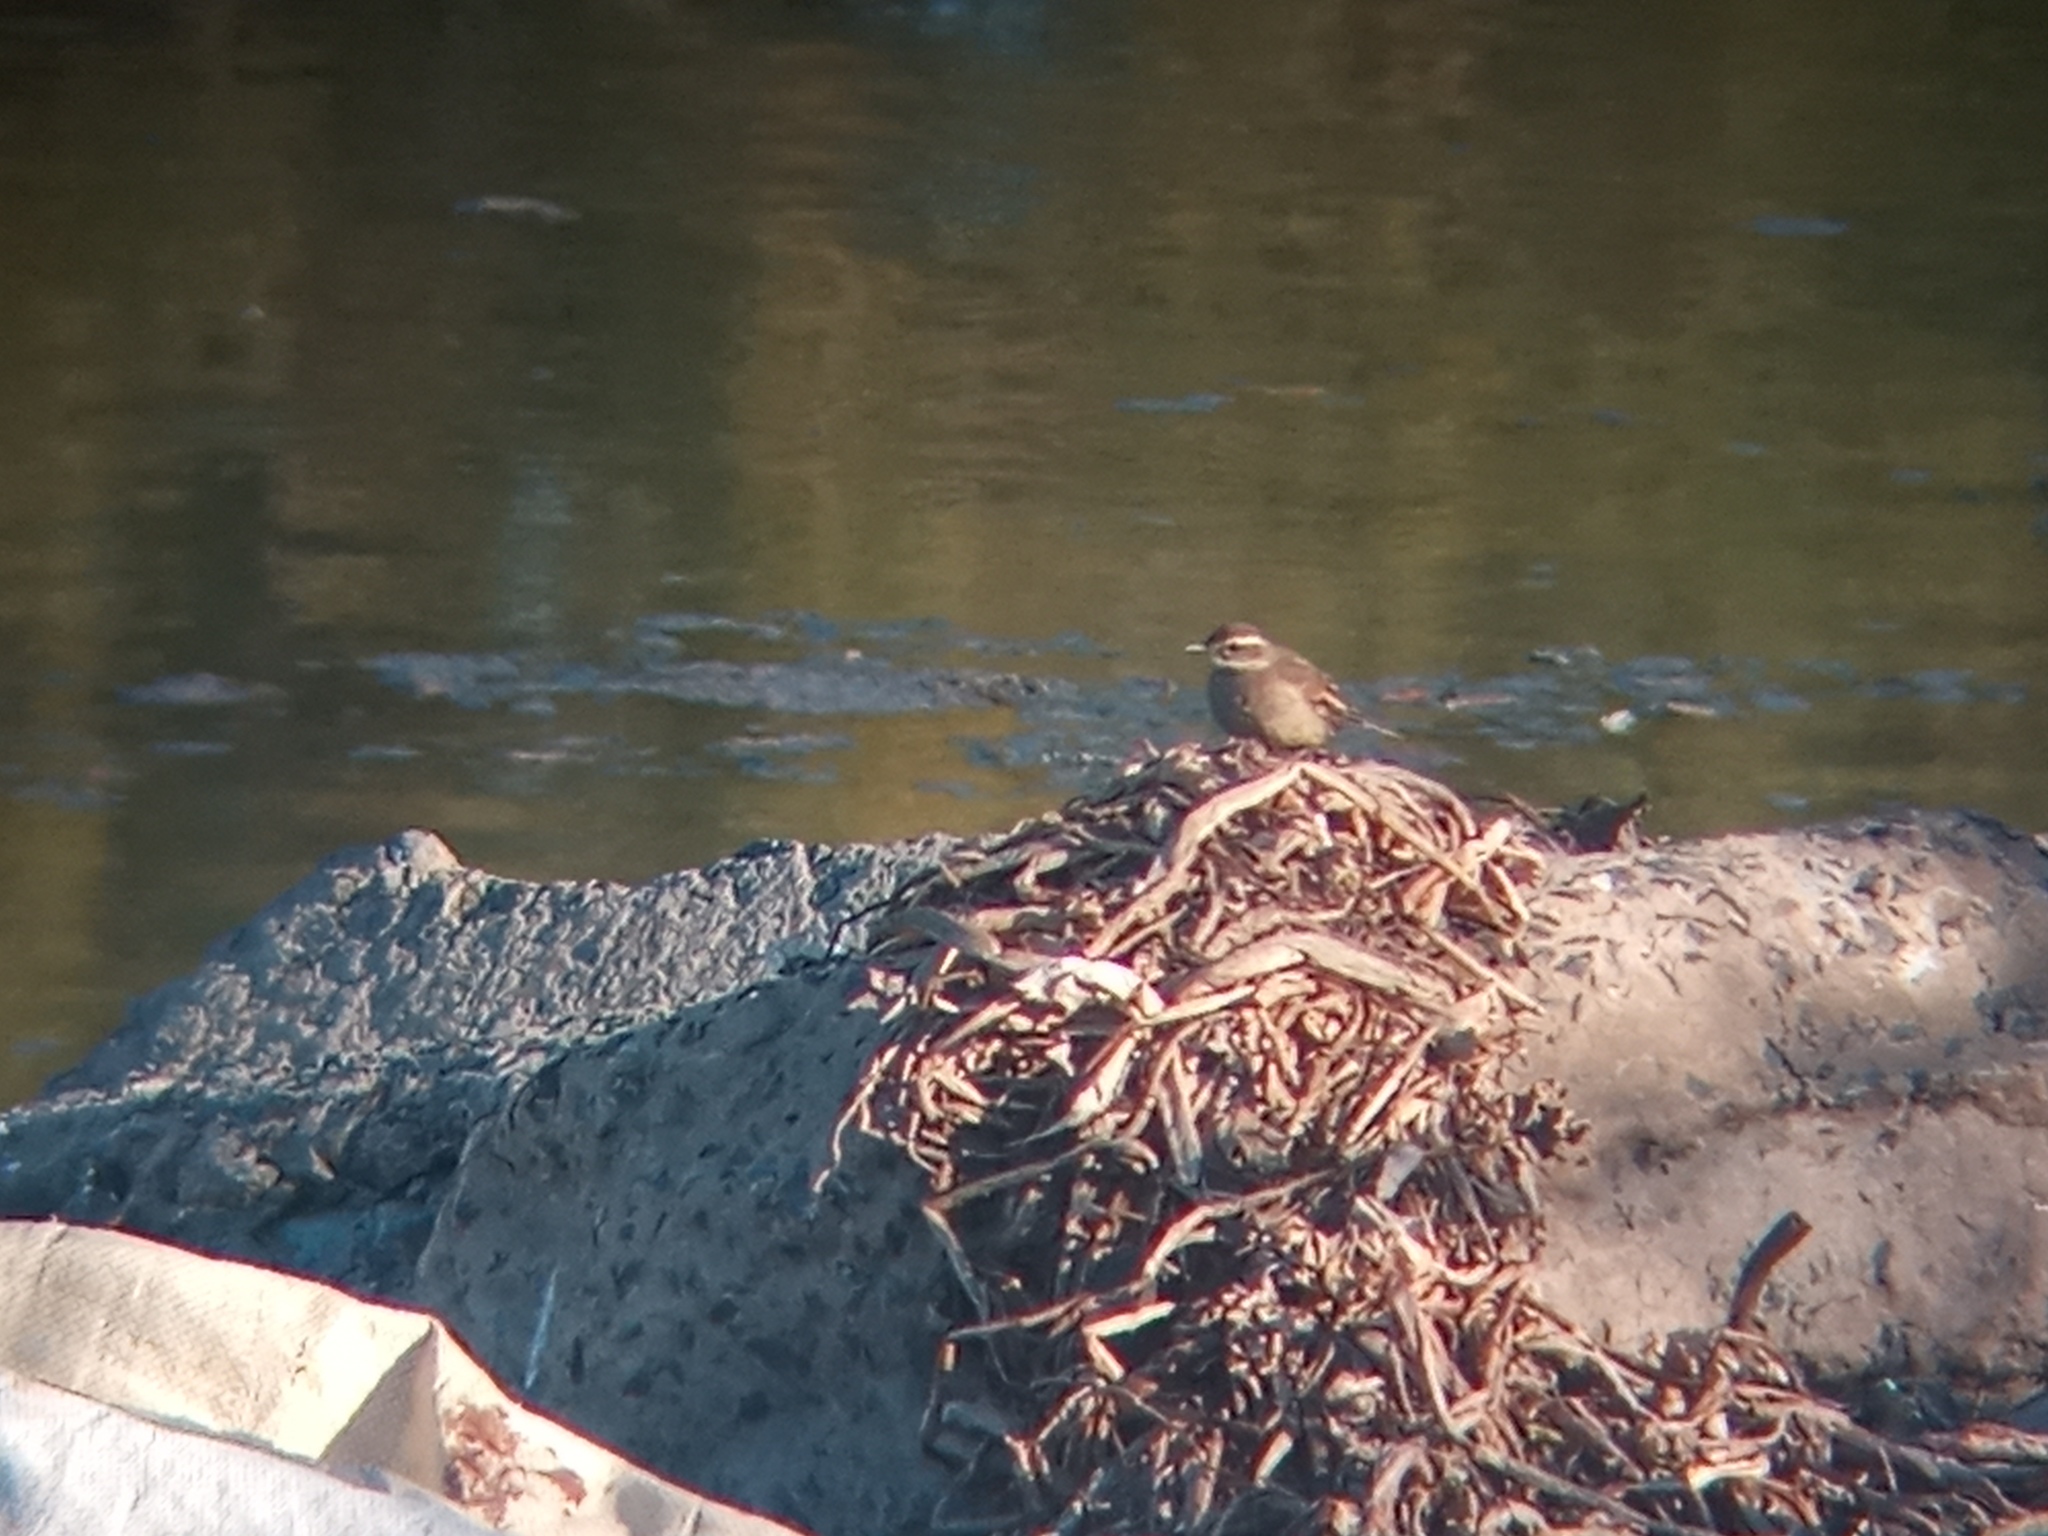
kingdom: Animalia
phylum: Chordata
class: Aves
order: Passeriformes
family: Furnariidae
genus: Cinclodes
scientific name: Cinclodes fuscus
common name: Buff-winged cinclodes
